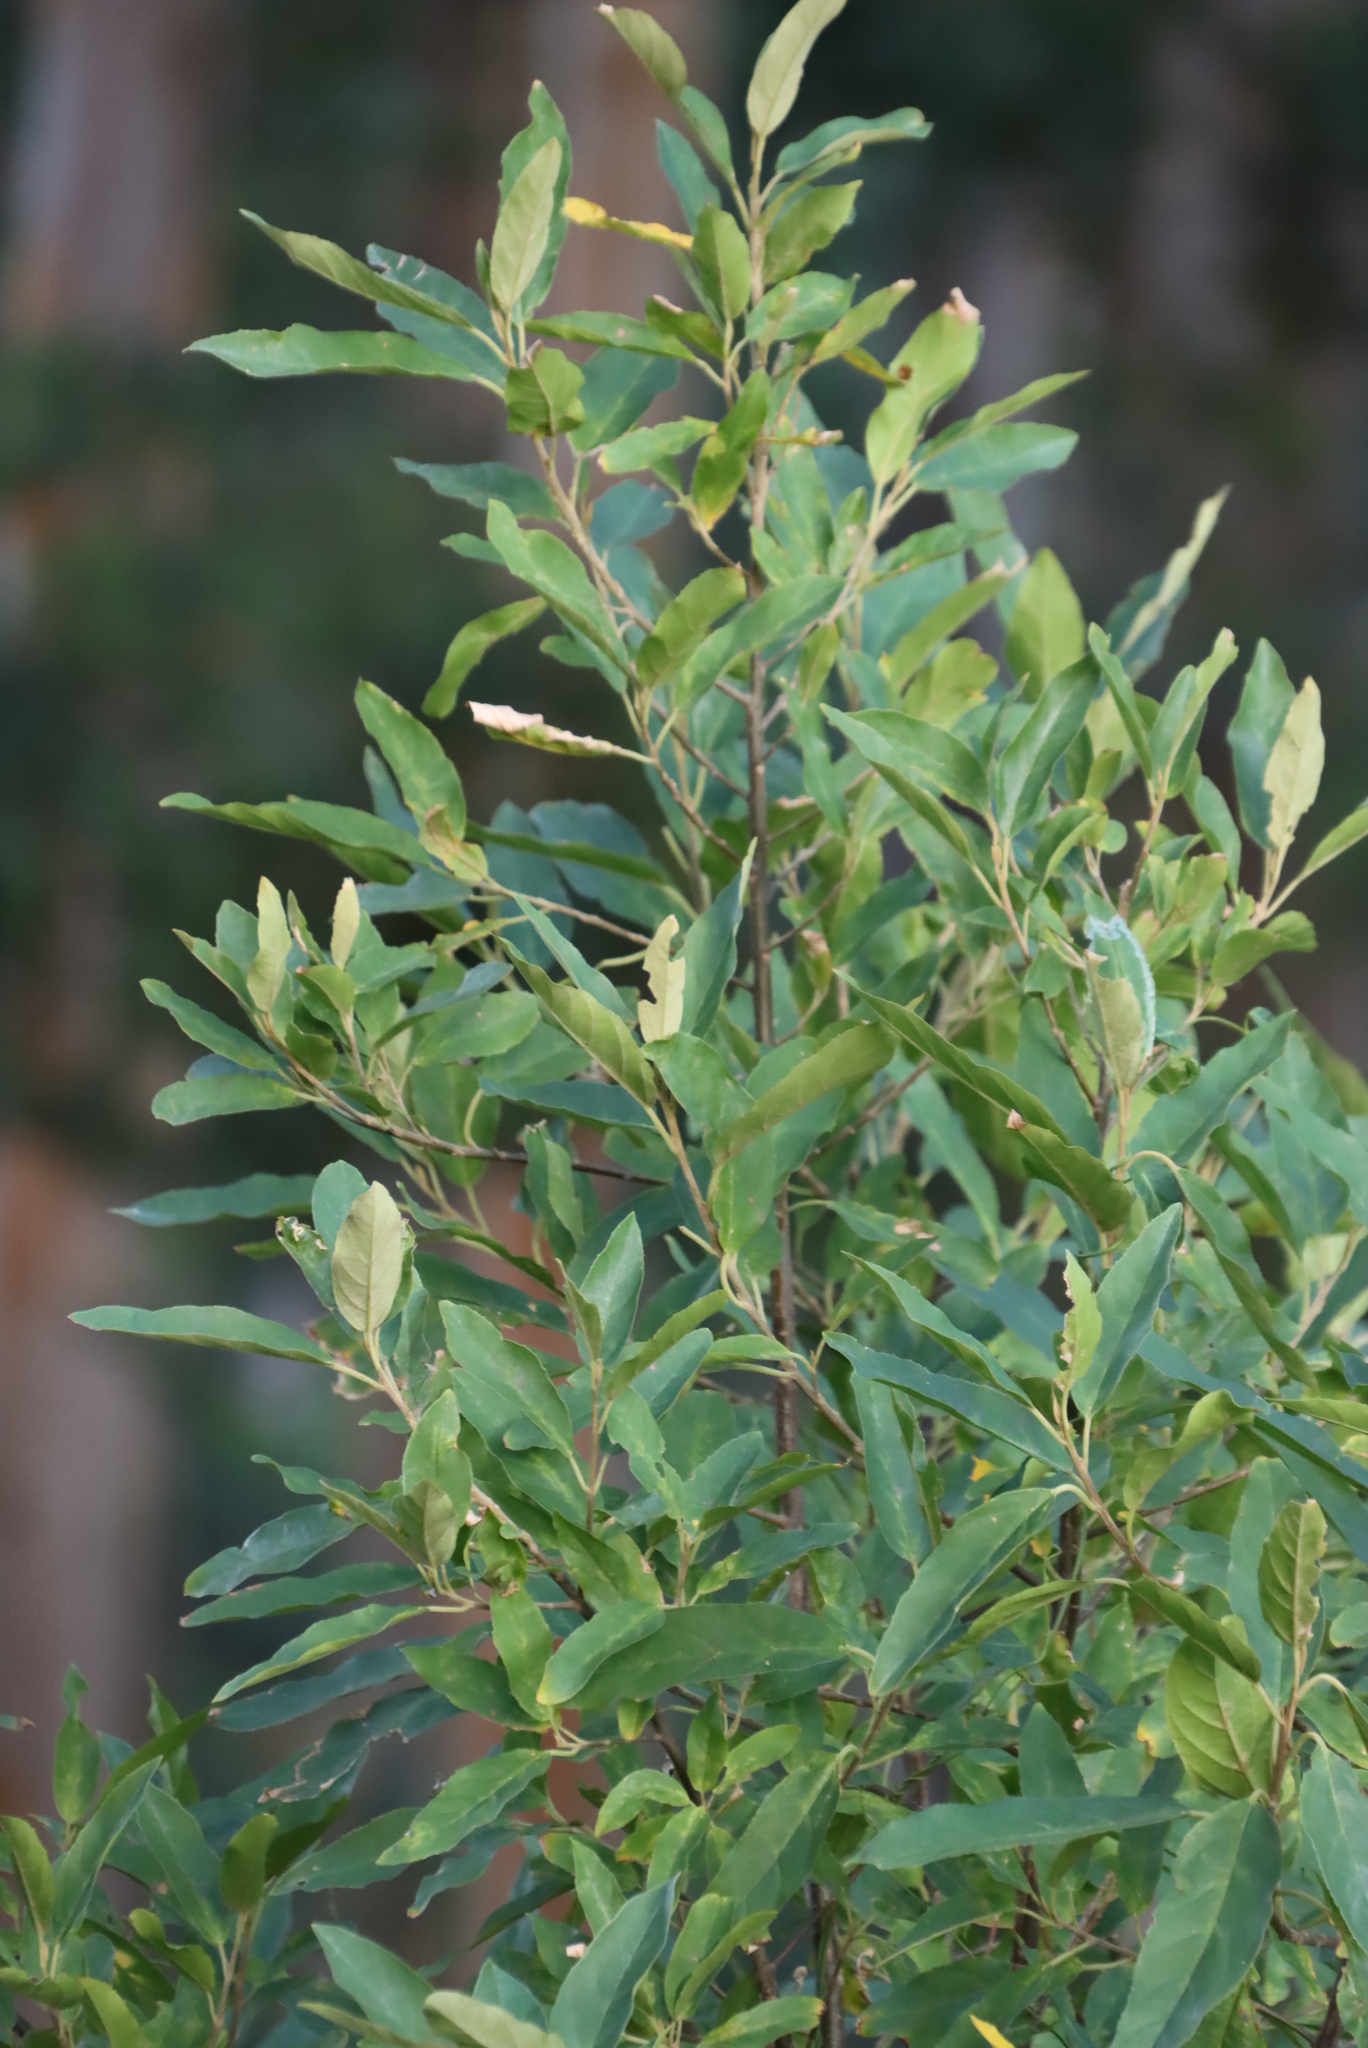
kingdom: Plantae
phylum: Tracheophyta
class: Magnoliopsida
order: Malpighiales
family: Achariaceae
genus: Kiggelaria
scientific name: Kiggelaria africana
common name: Wild peach
